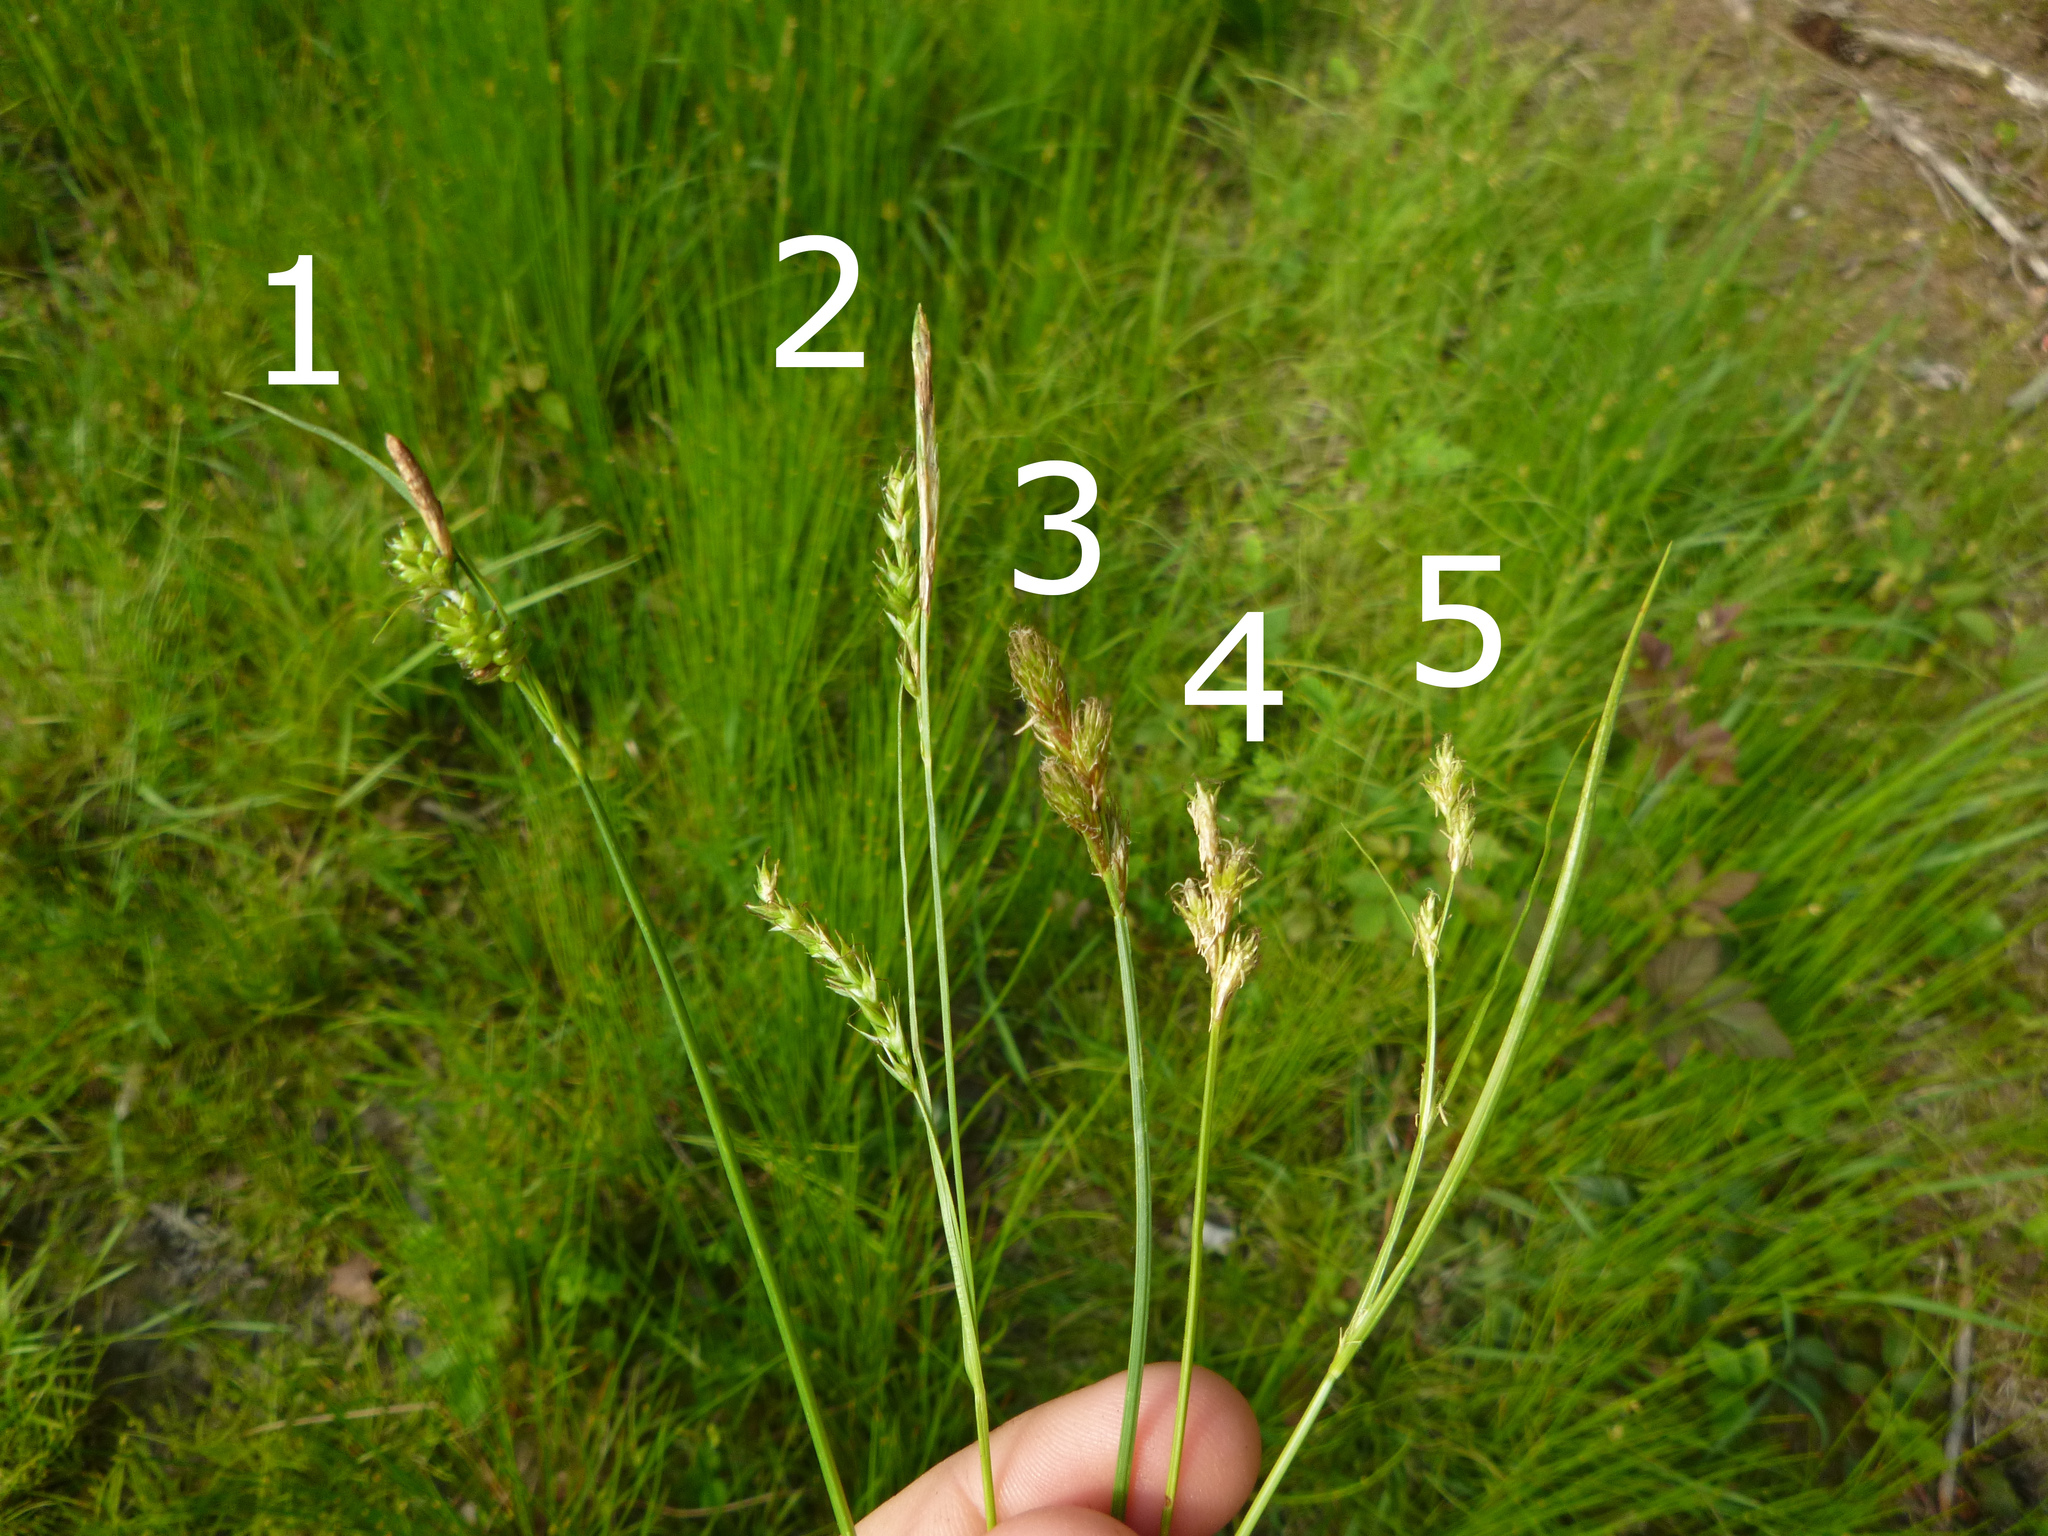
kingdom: Plantae
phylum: Tracheophyta
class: Liliopsida
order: Poales
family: Cyperaceae
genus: Carex
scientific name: Carex brizoides
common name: Quaking-grass sedge
